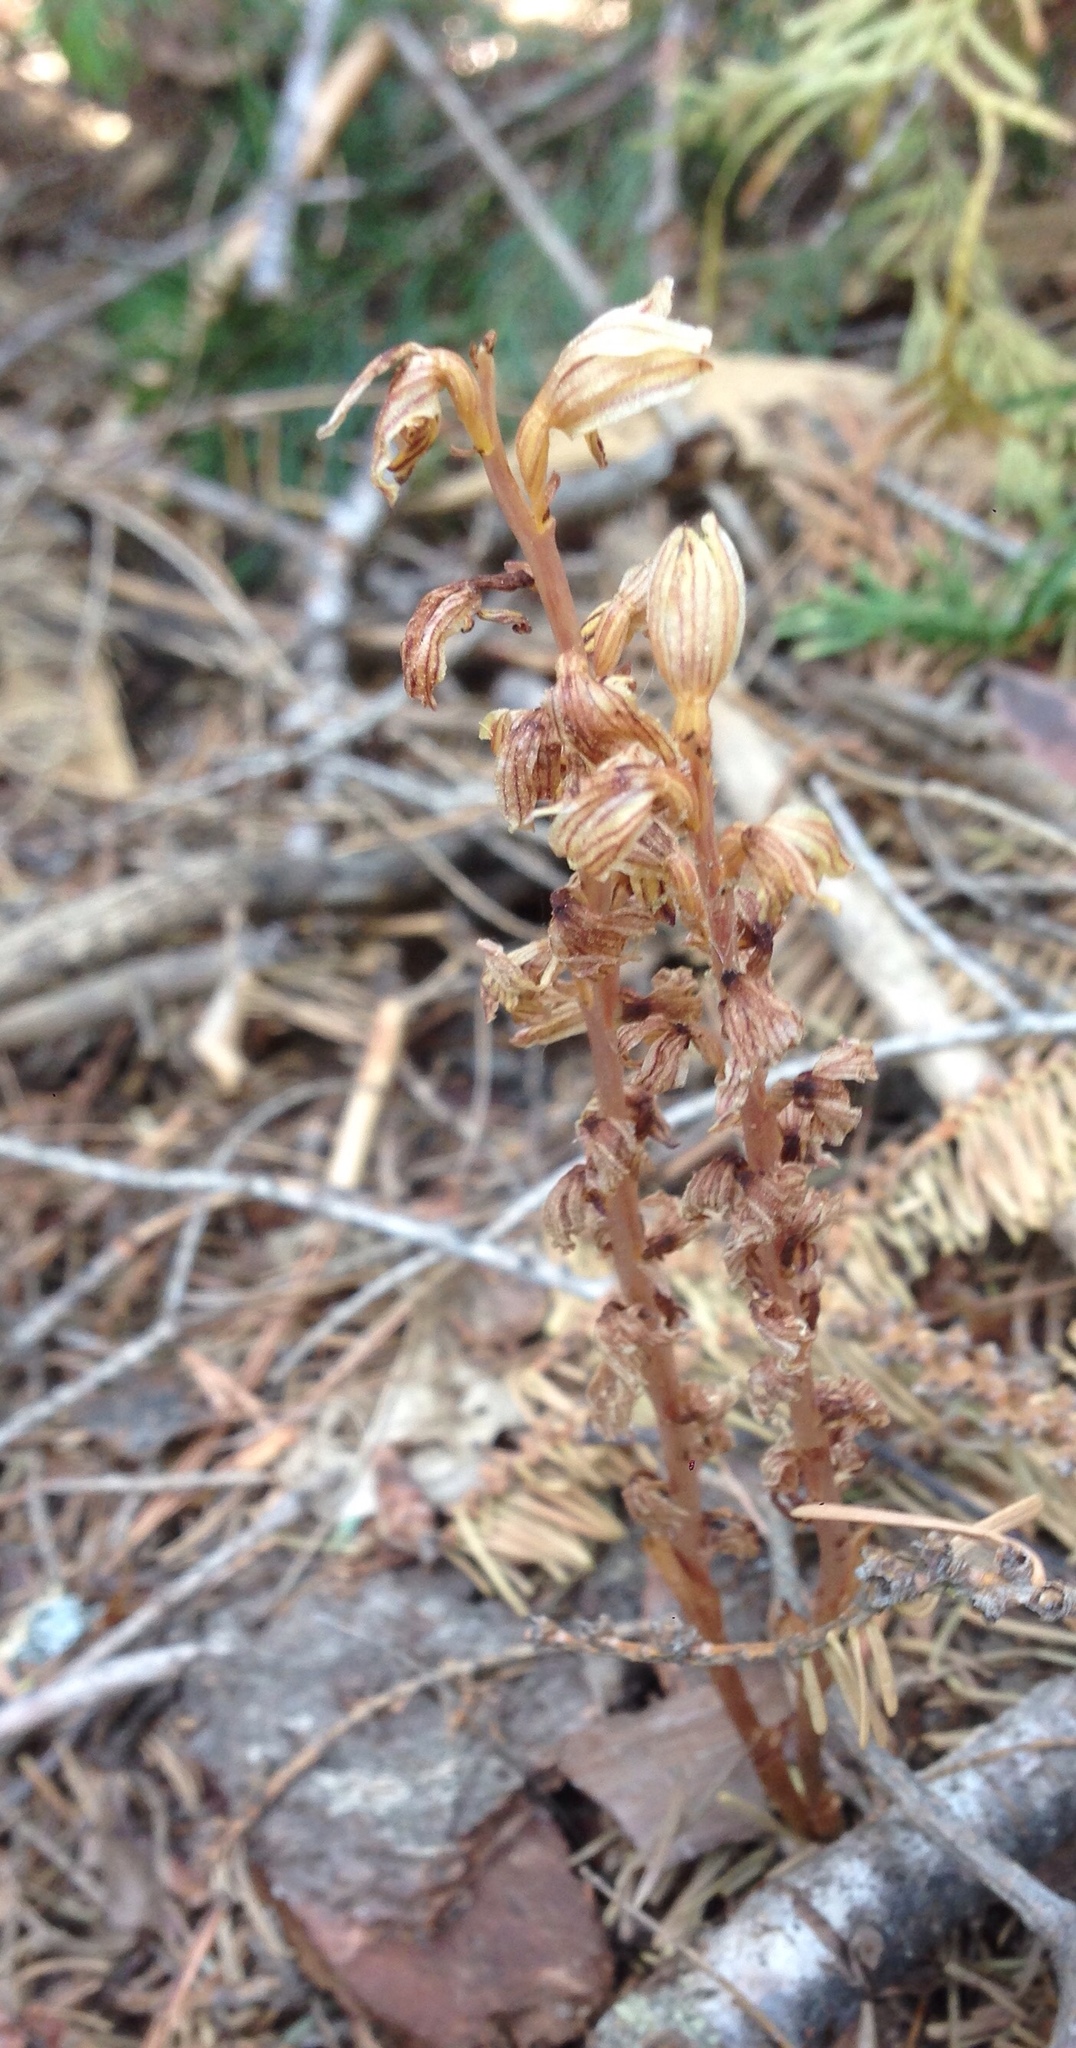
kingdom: Plantae
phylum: Tracheophyta
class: Liliopsida
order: Asparagales
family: Orchidaceae
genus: Corallorhiza
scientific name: Corallorhiza striata
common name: Hooded coralroot
